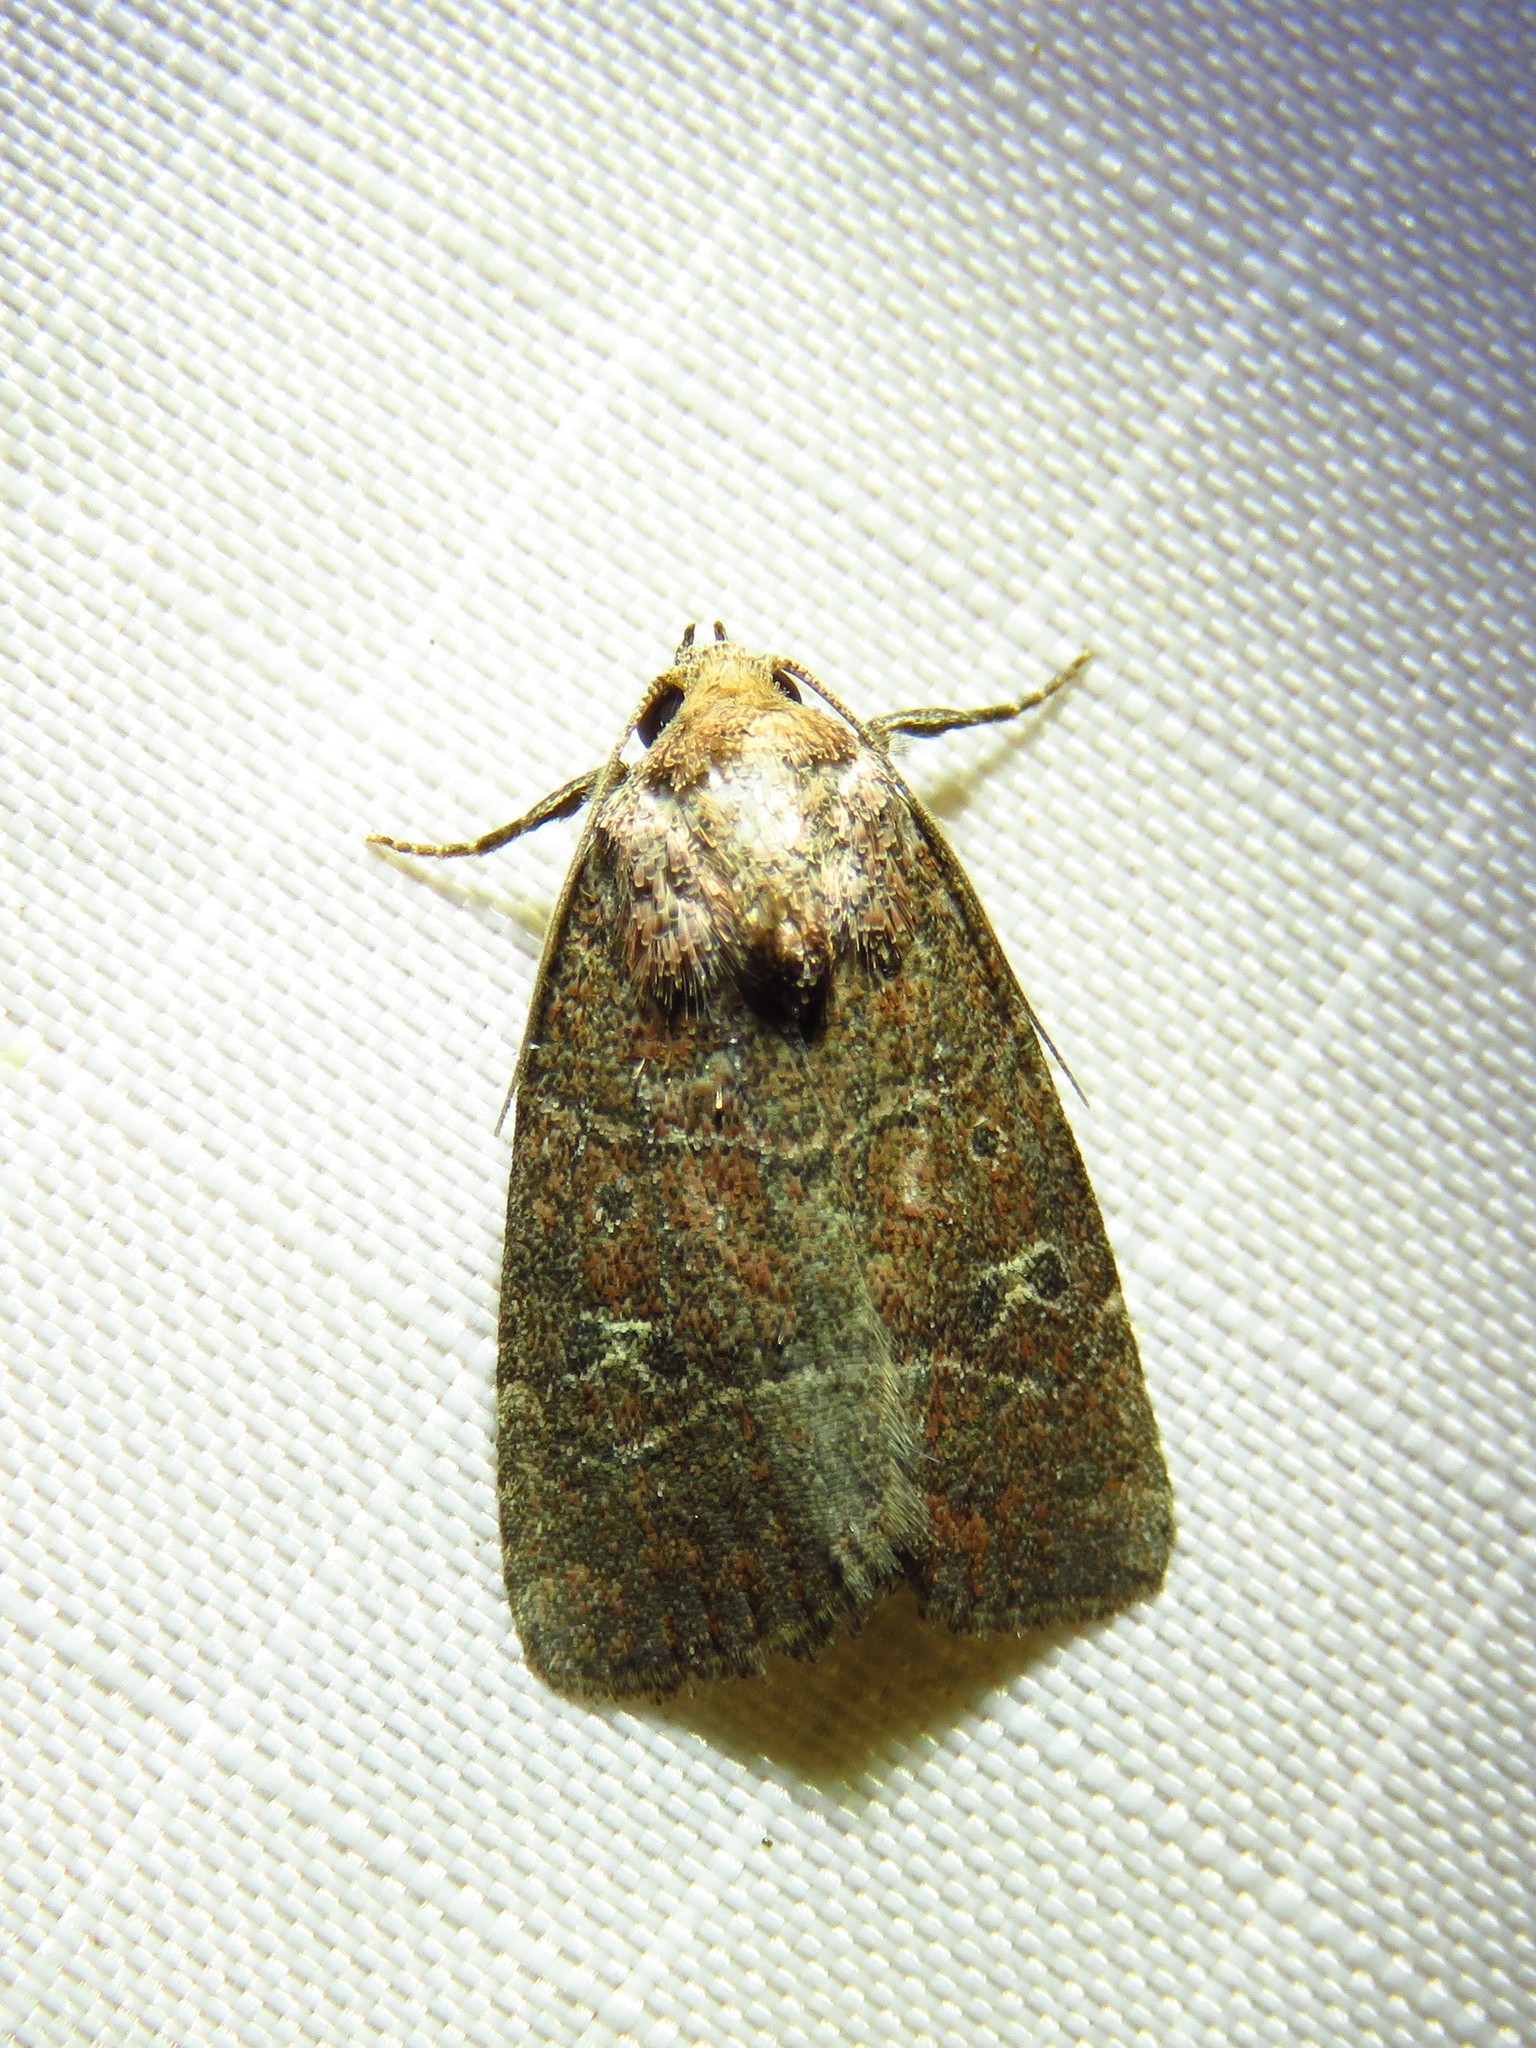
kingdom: Animalia
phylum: Arthropoda
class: Insecta
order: Lepidoptera
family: Noctuidae
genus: Elaphria
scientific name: Elaphria grata
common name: Grateful midget moth
